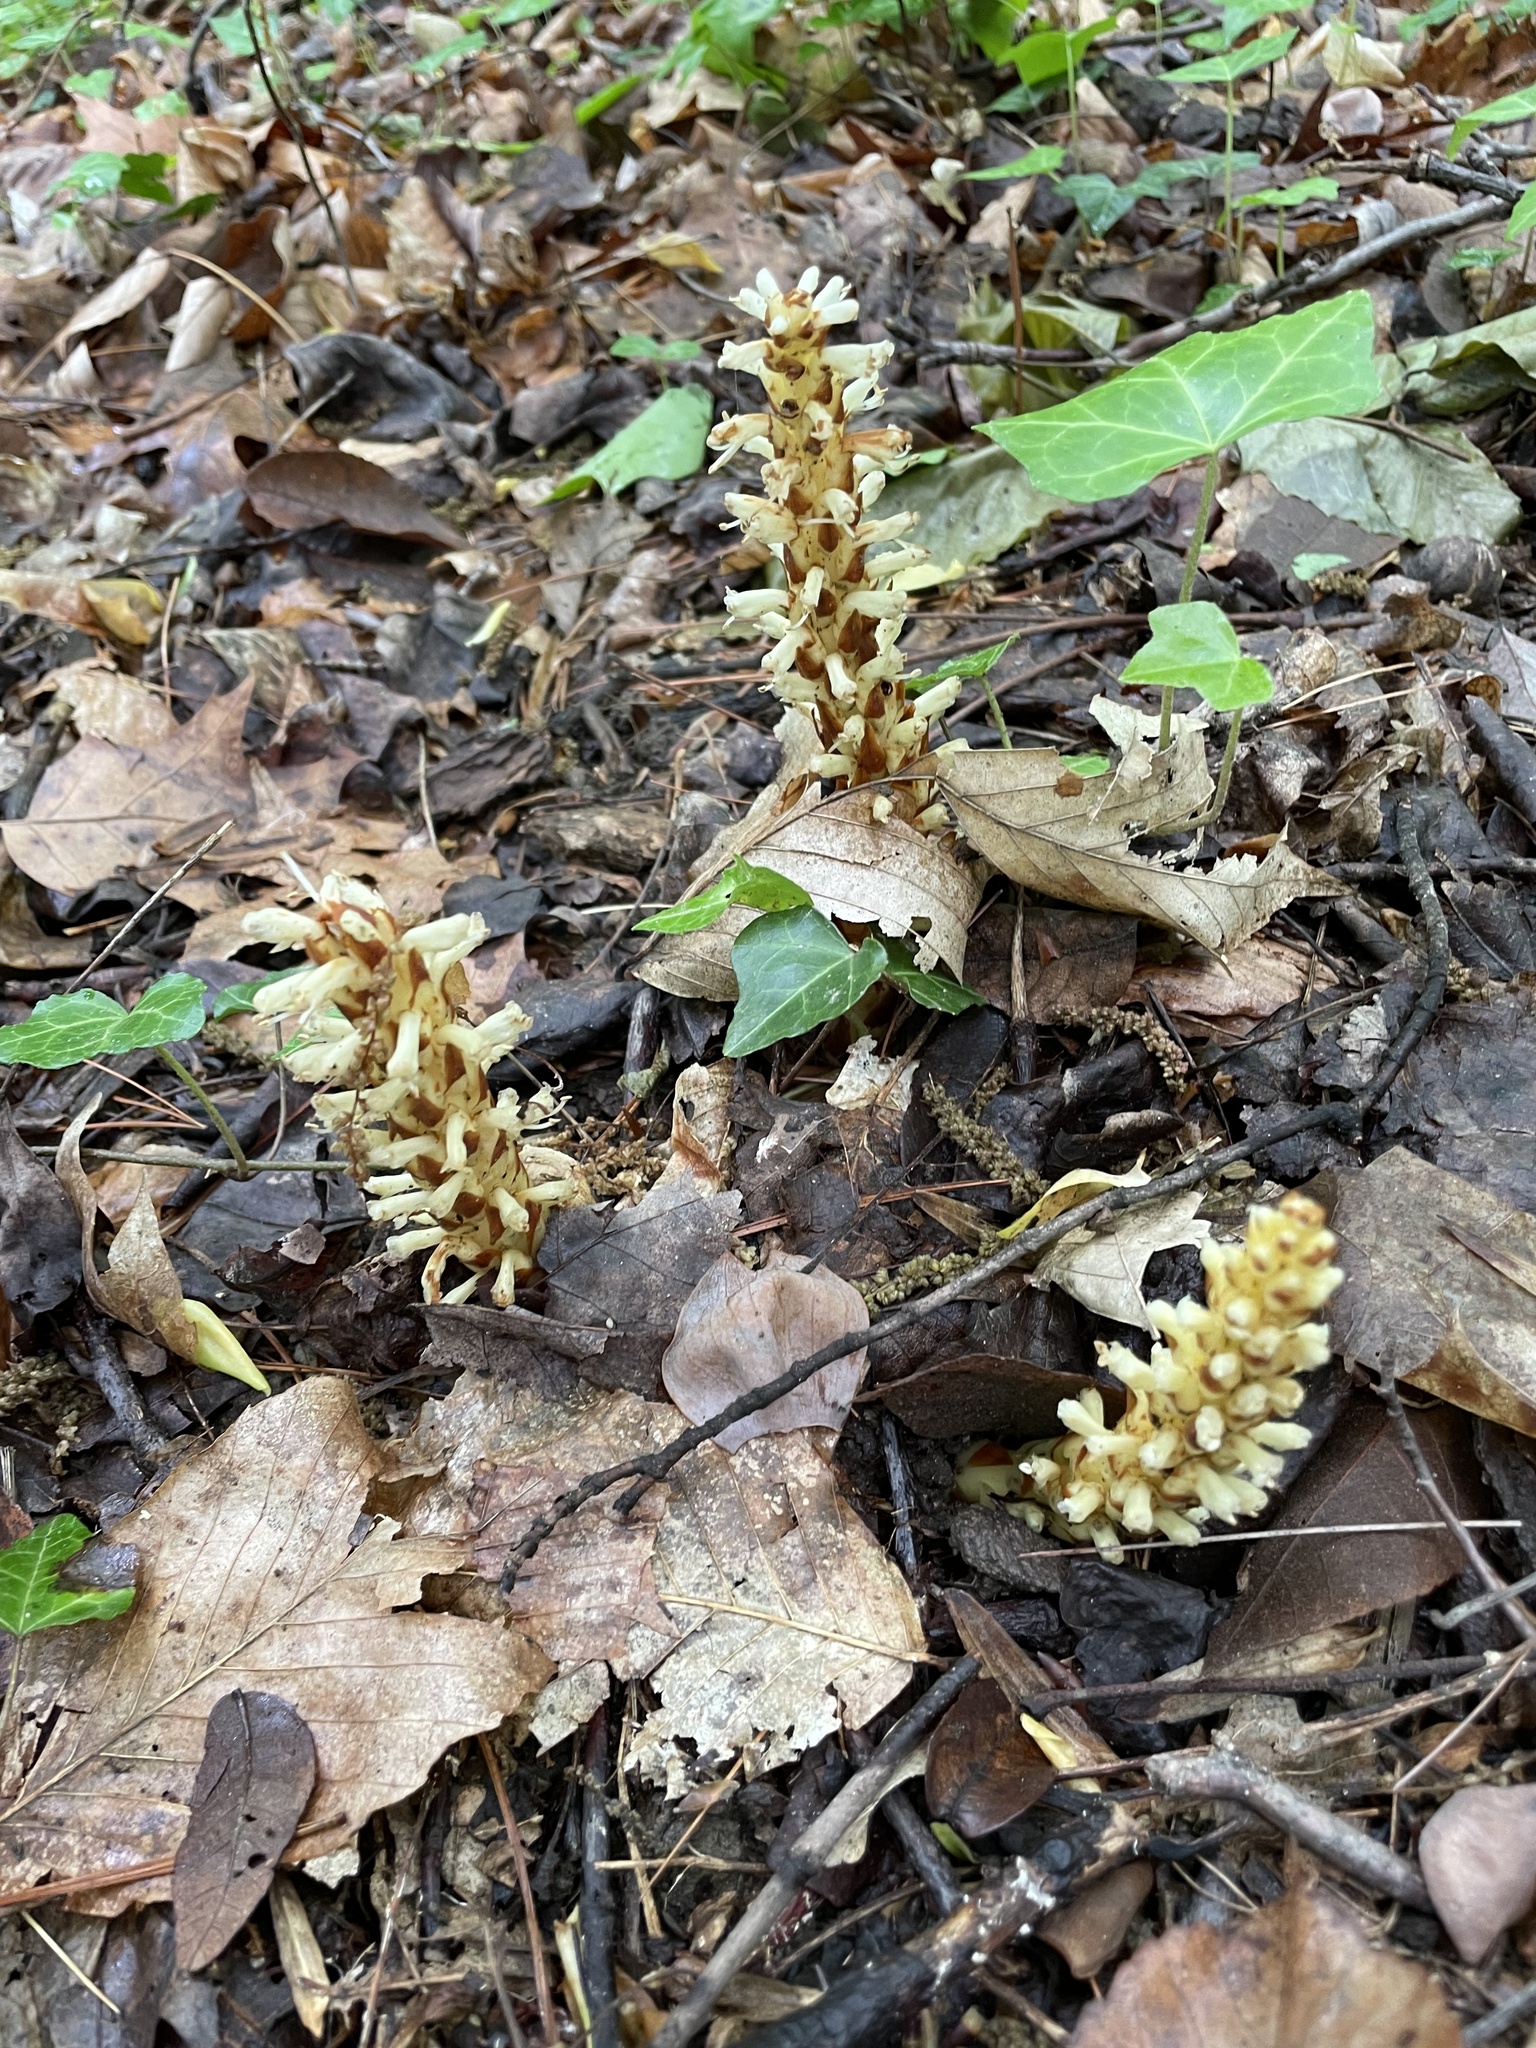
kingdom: Plantae
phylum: Tracheophyta
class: Magnoliopsida
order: Lamiales
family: Orobanchaceae
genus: Conopholis
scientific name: Conopholis americana
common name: American cancer-root
